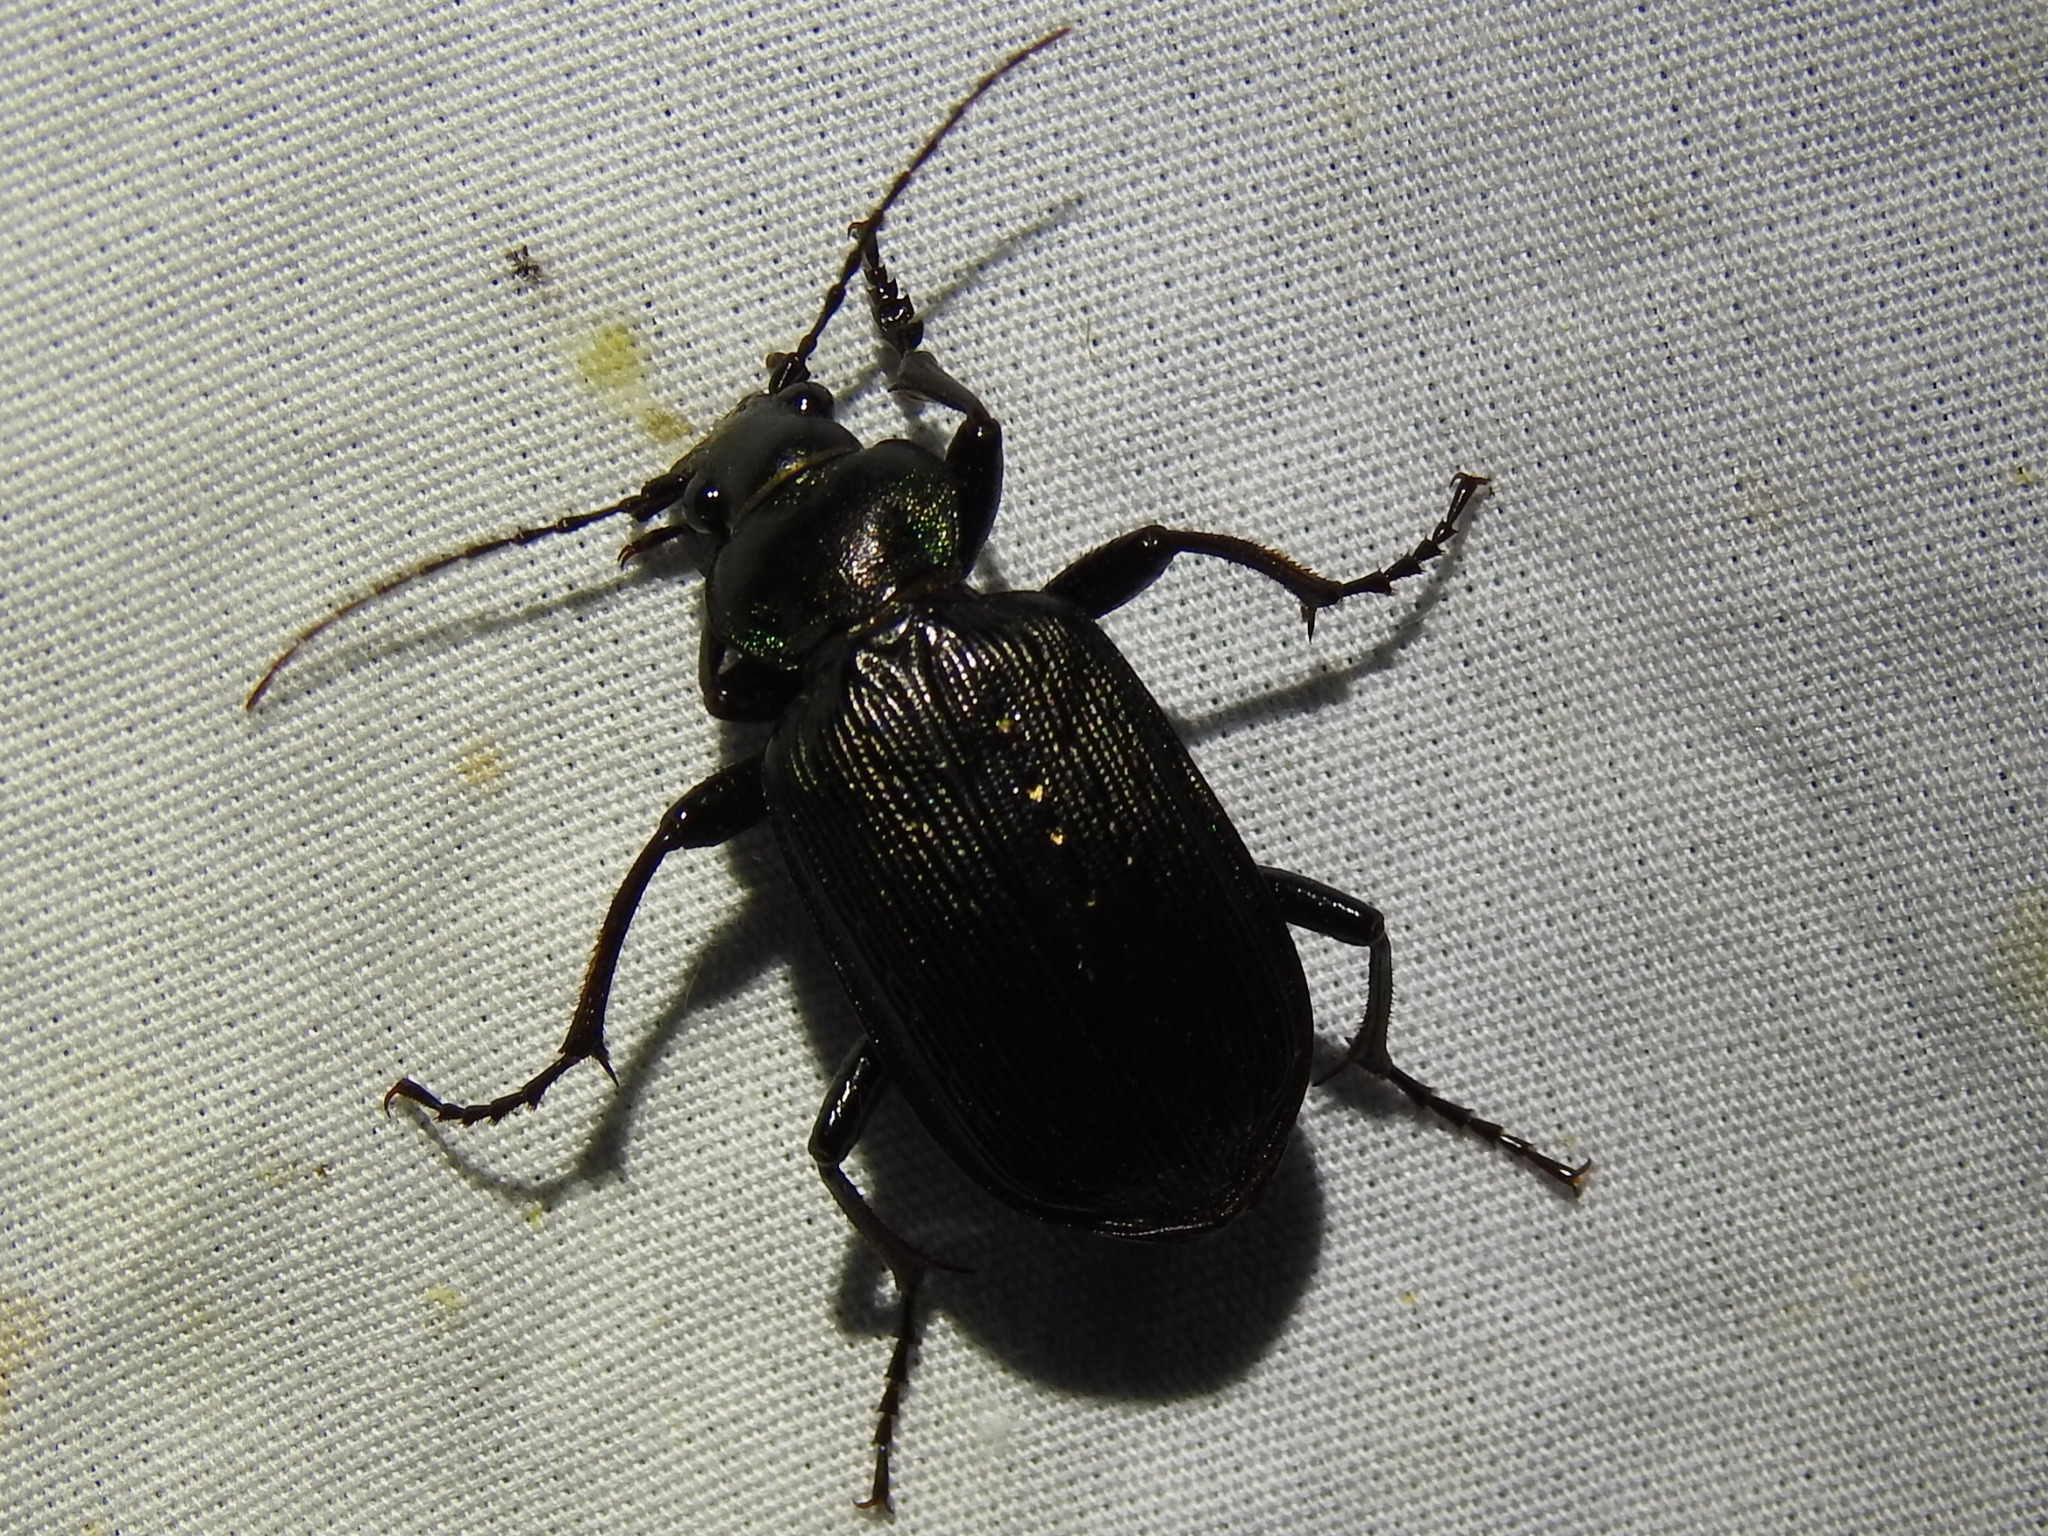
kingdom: Animalia
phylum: Arthropoda
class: Insecta
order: Coleoptera
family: Carabidae
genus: Calosoma
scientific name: Calosoma sayi
